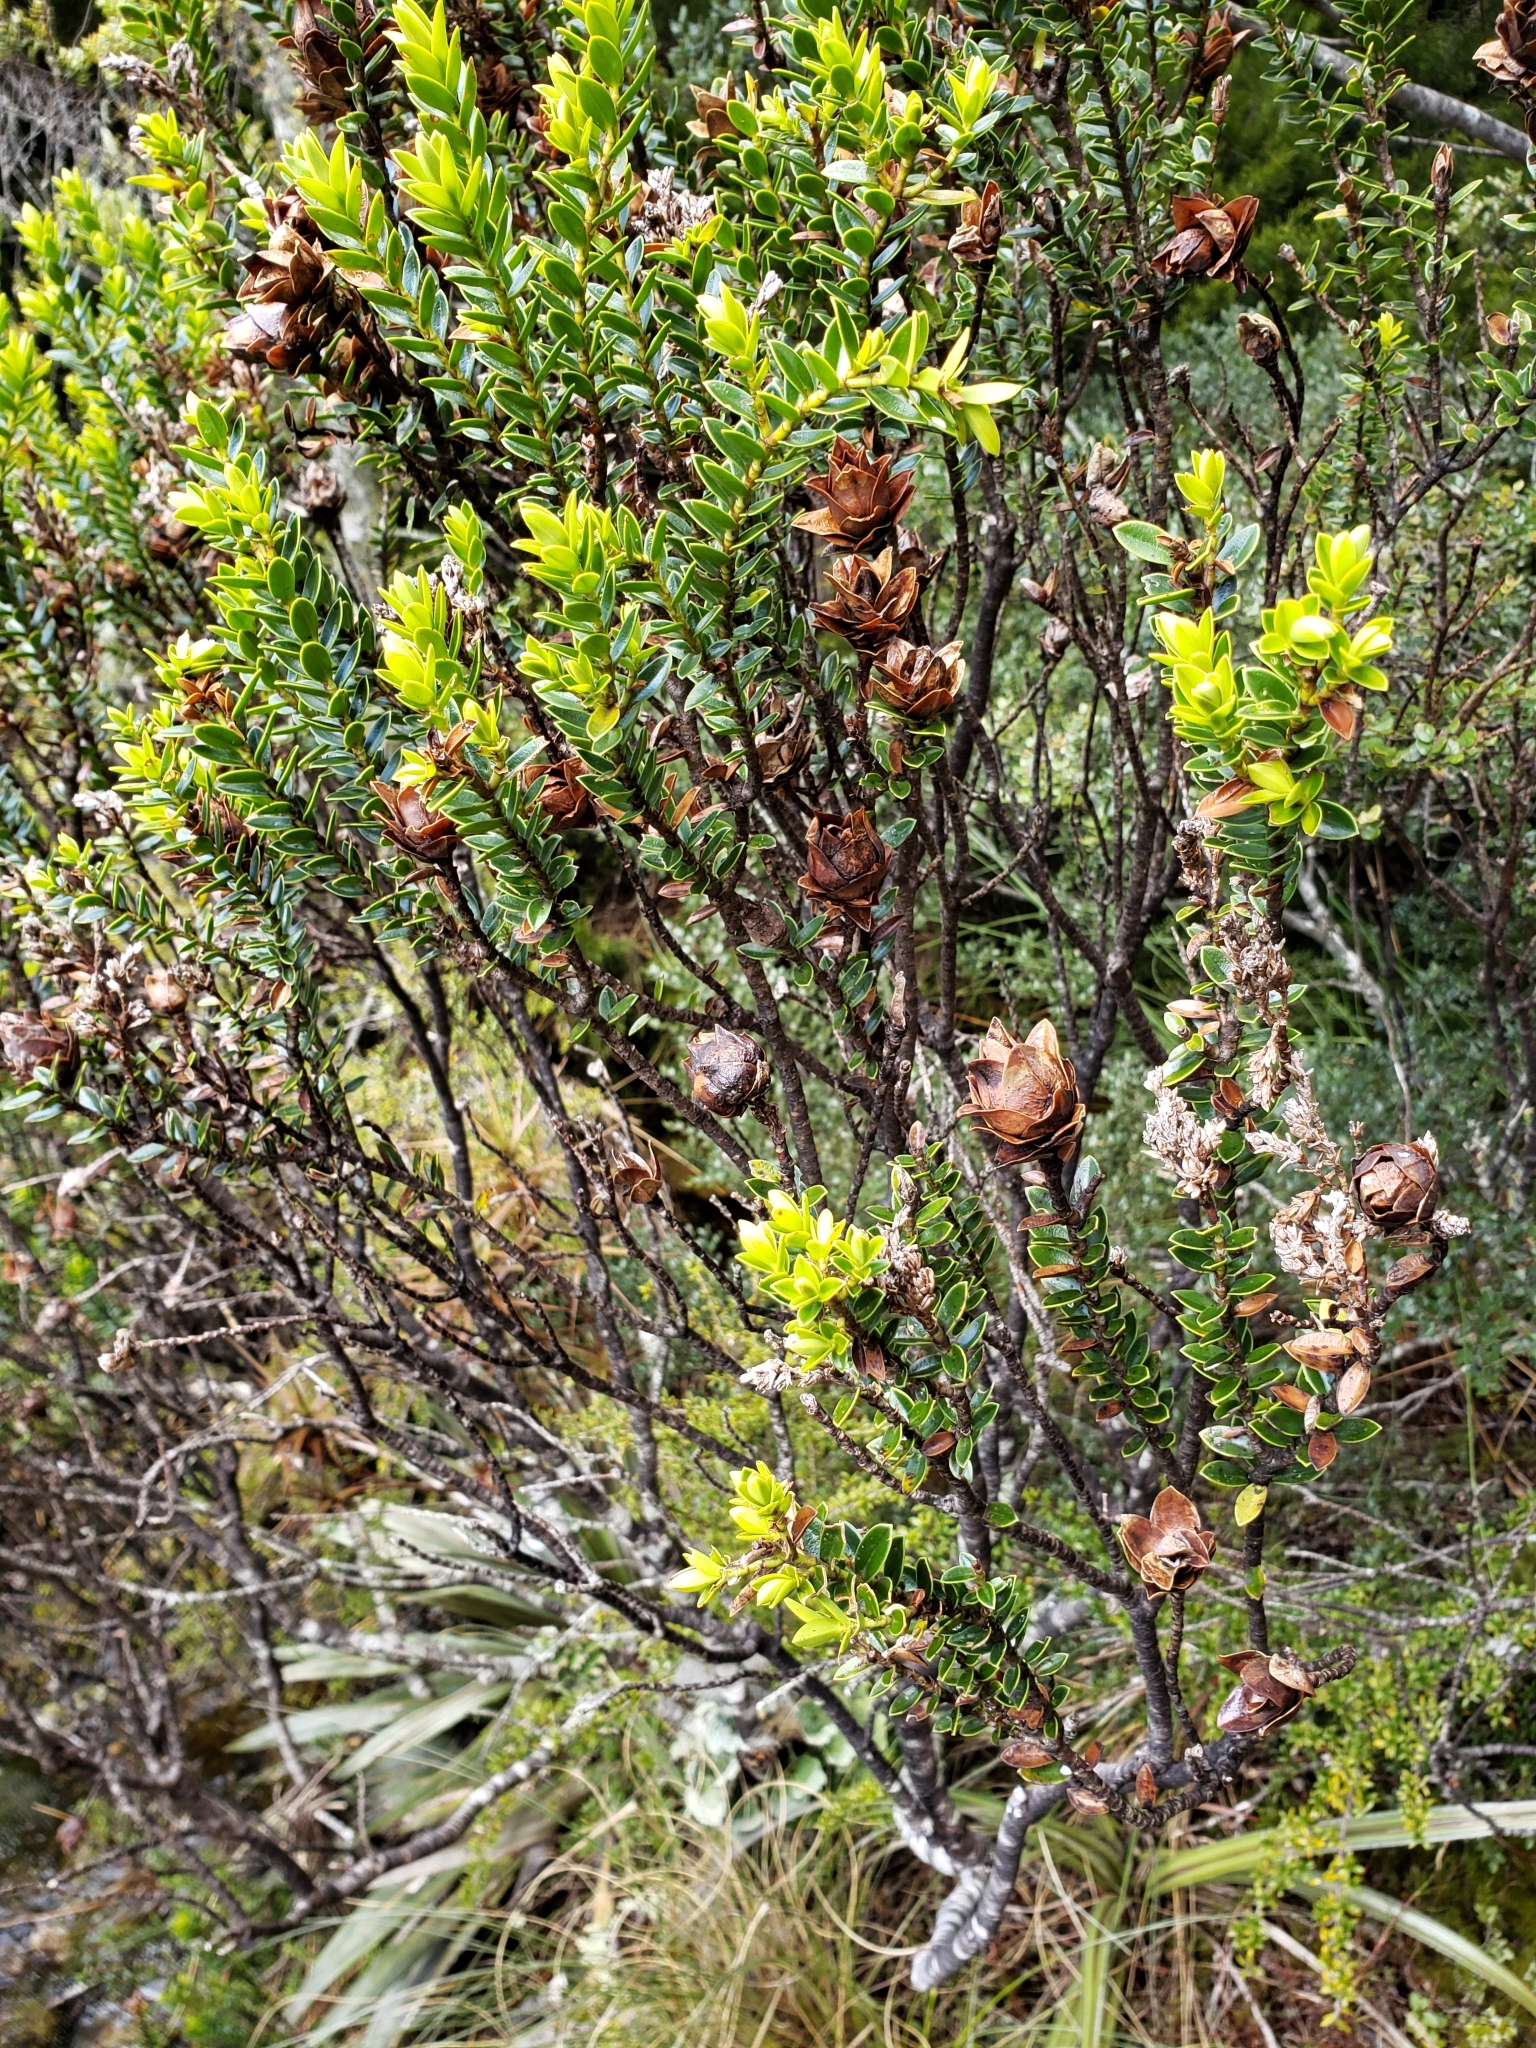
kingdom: Plantae
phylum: Tracheophyta
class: Magnoliopsida
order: Lamiales
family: Plantaginaceae
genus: Veronica
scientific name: Veronica odora
